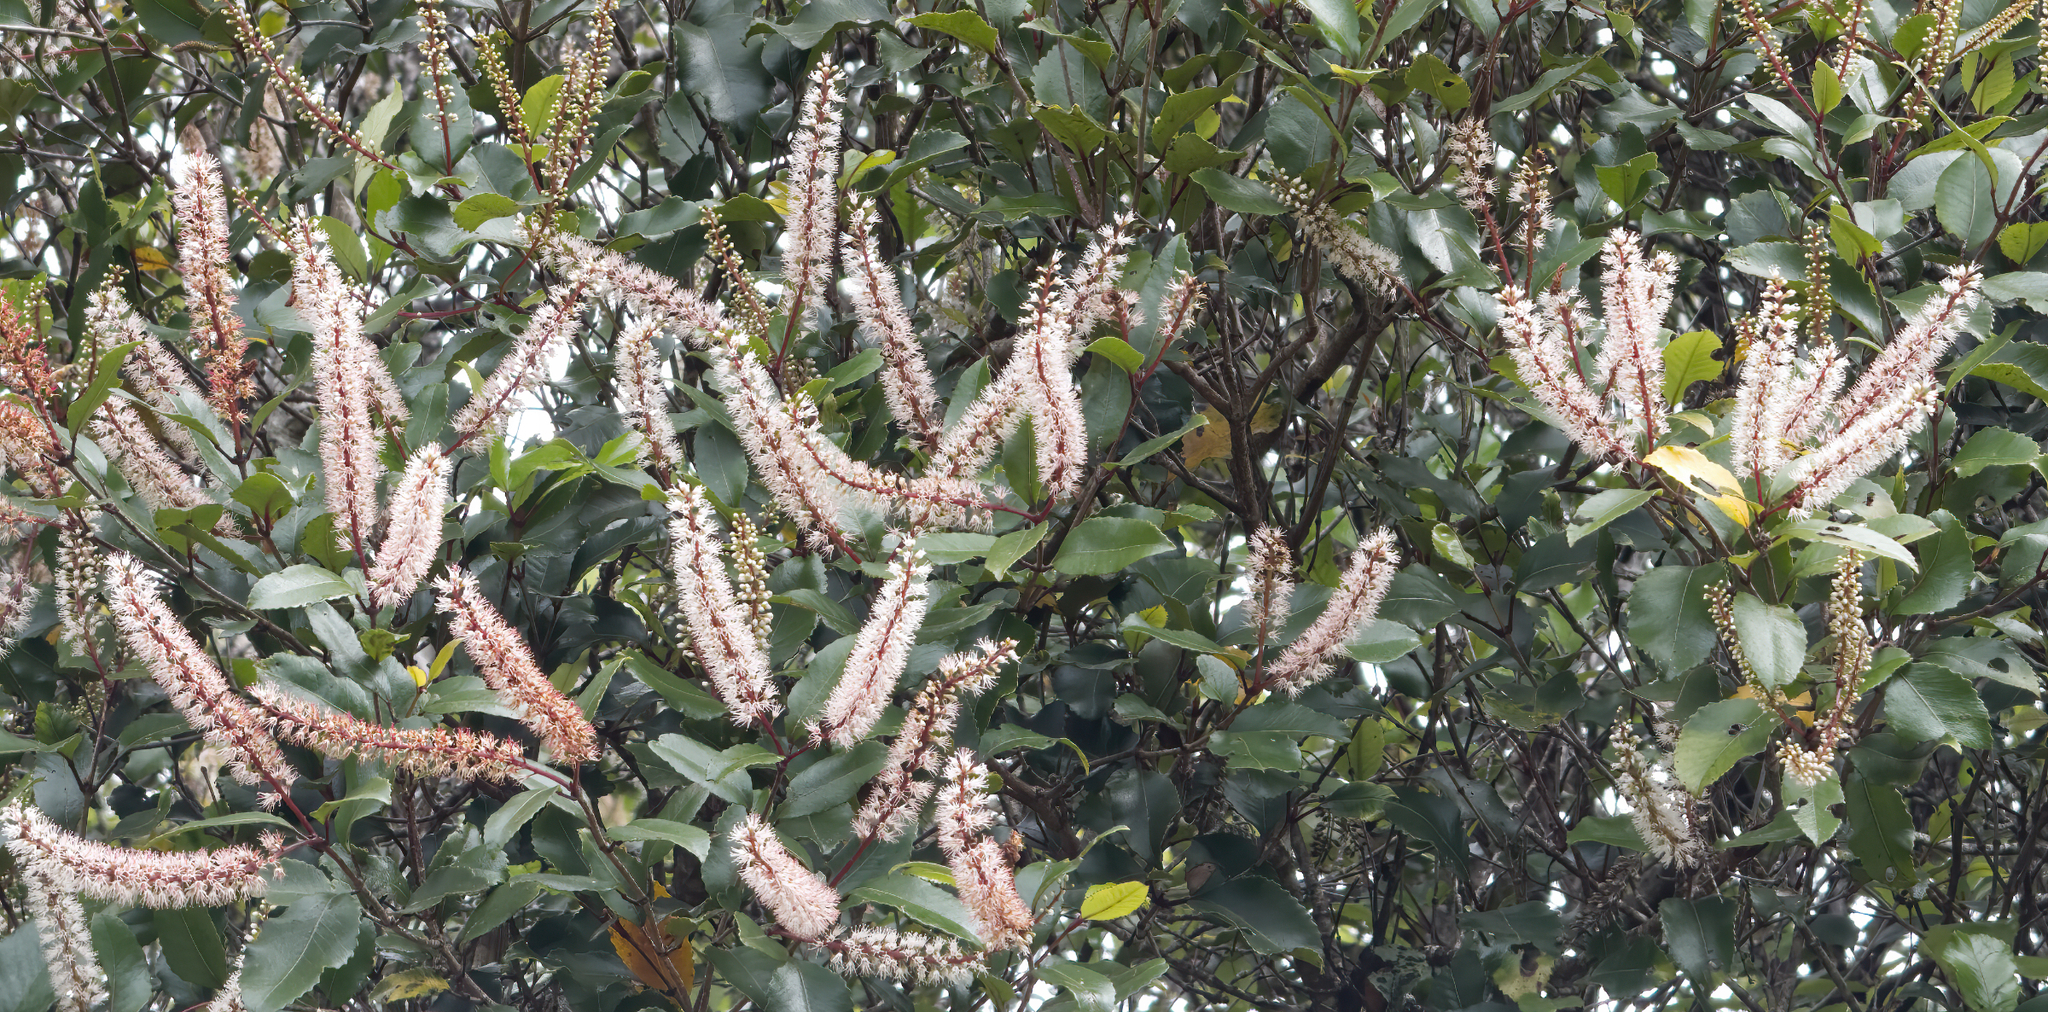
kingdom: Plantae
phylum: Tracheophyta
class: Magnoliopsida
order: Oxalidales
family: Cunoniaceae
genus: Pterophylla
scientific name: Pterophylla racemosa
